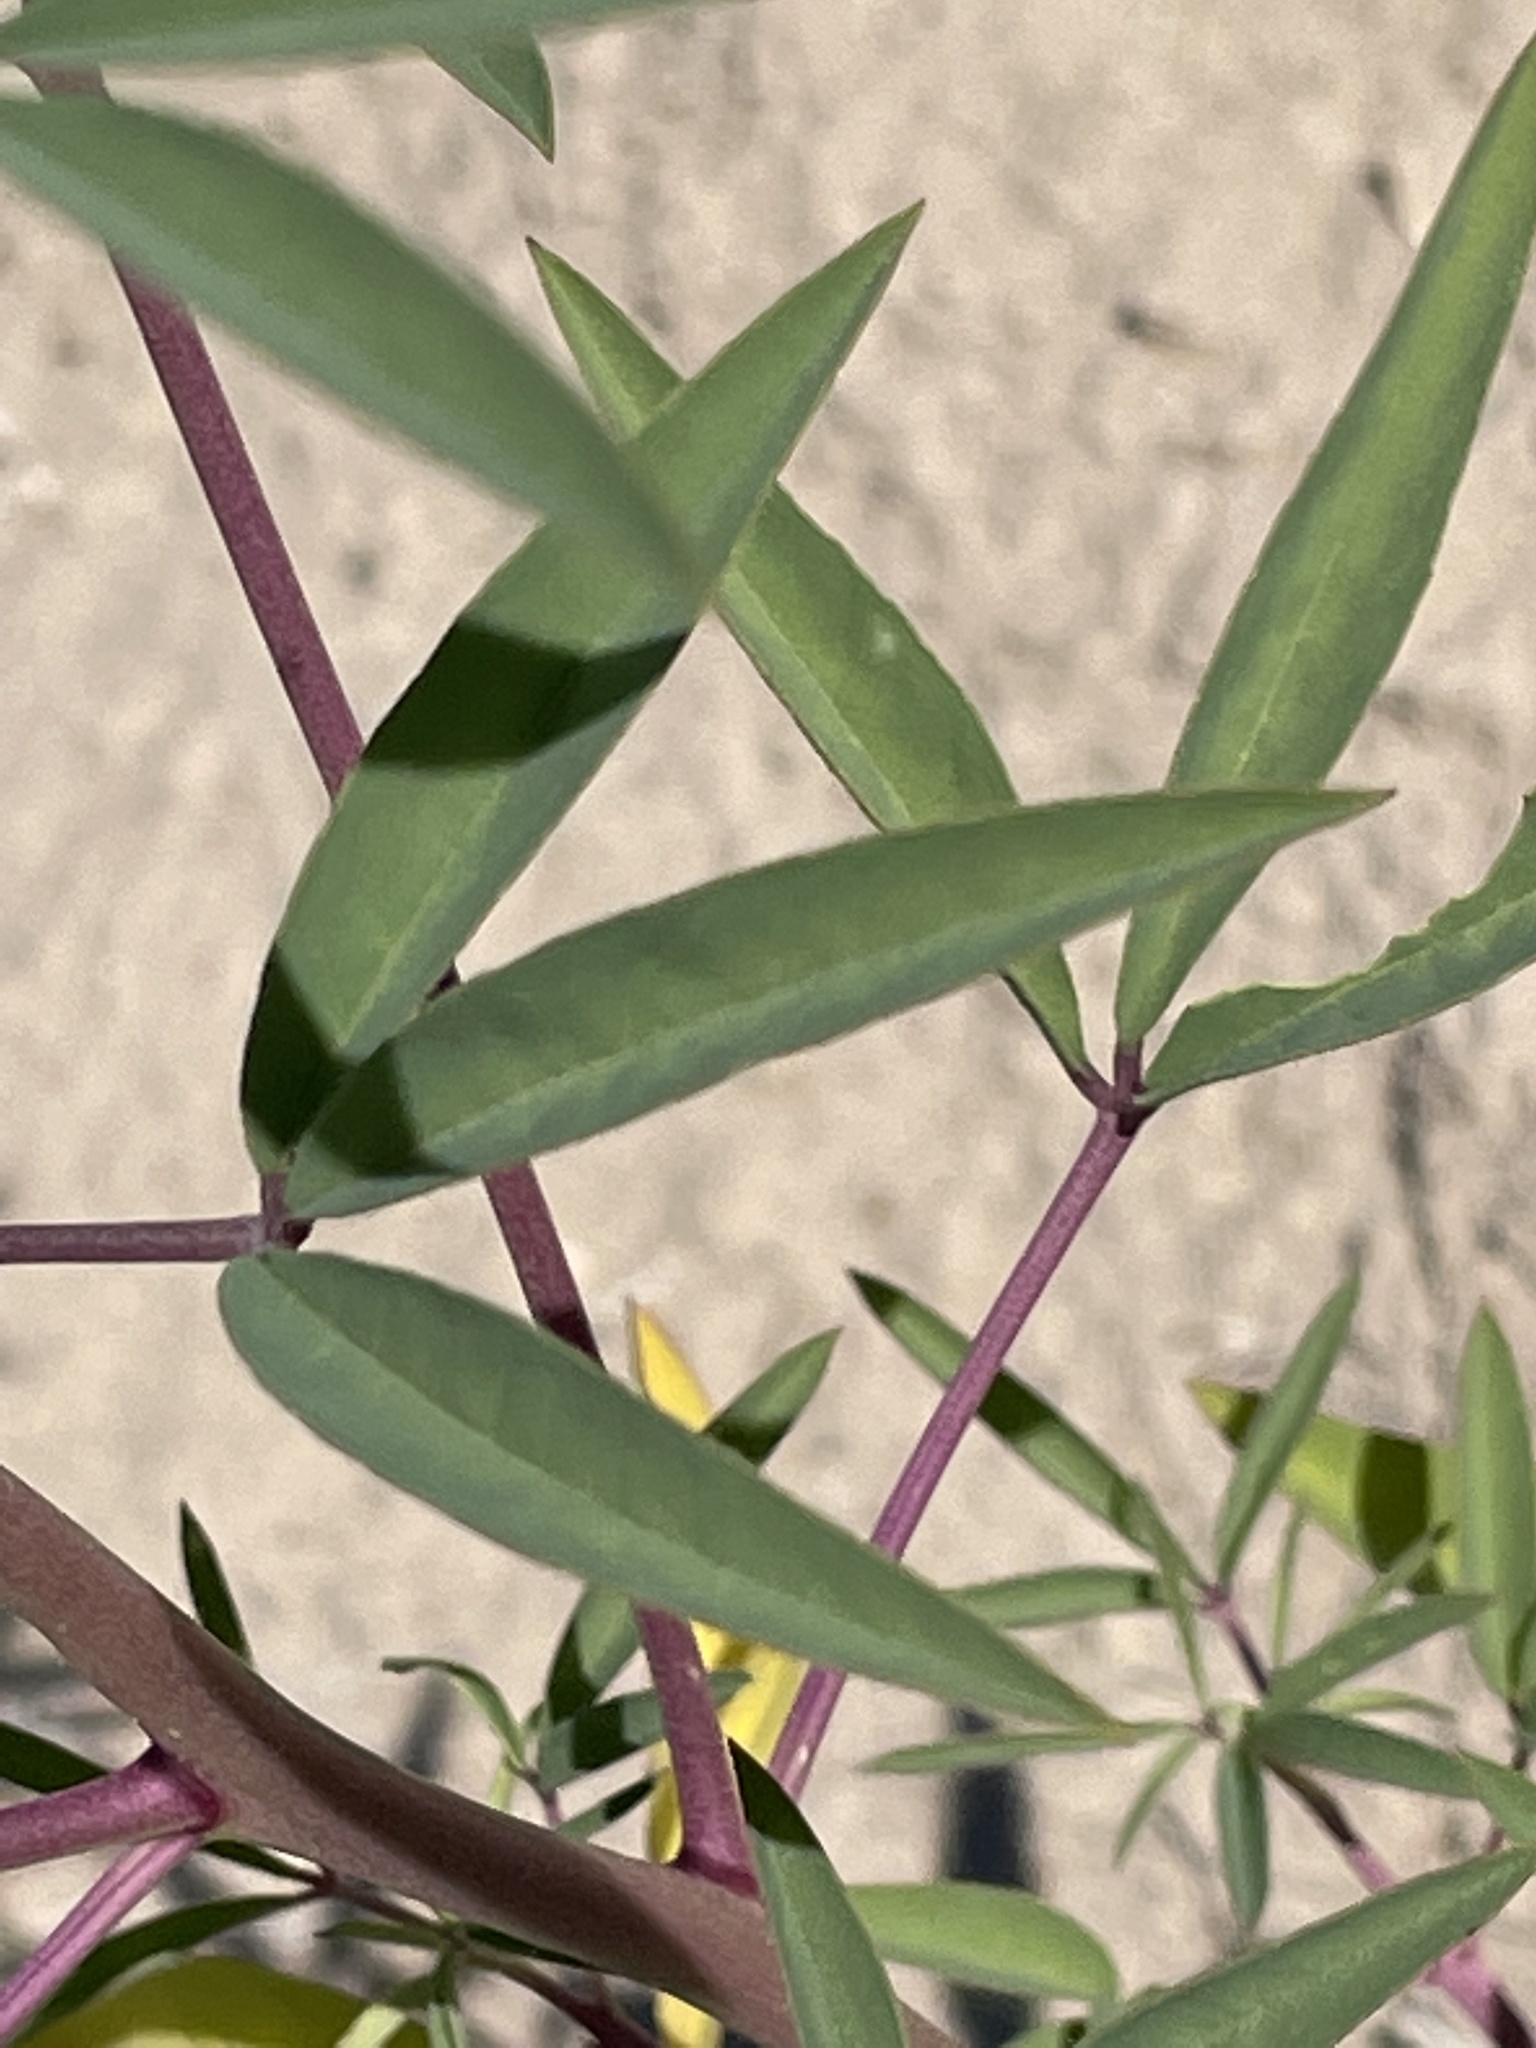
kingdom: Plantae
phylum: Tracheophyta
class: Magnoliopsida
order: Brassicales
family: Cleomaceae
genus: Cleomella
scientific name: Cleomella serrulata
